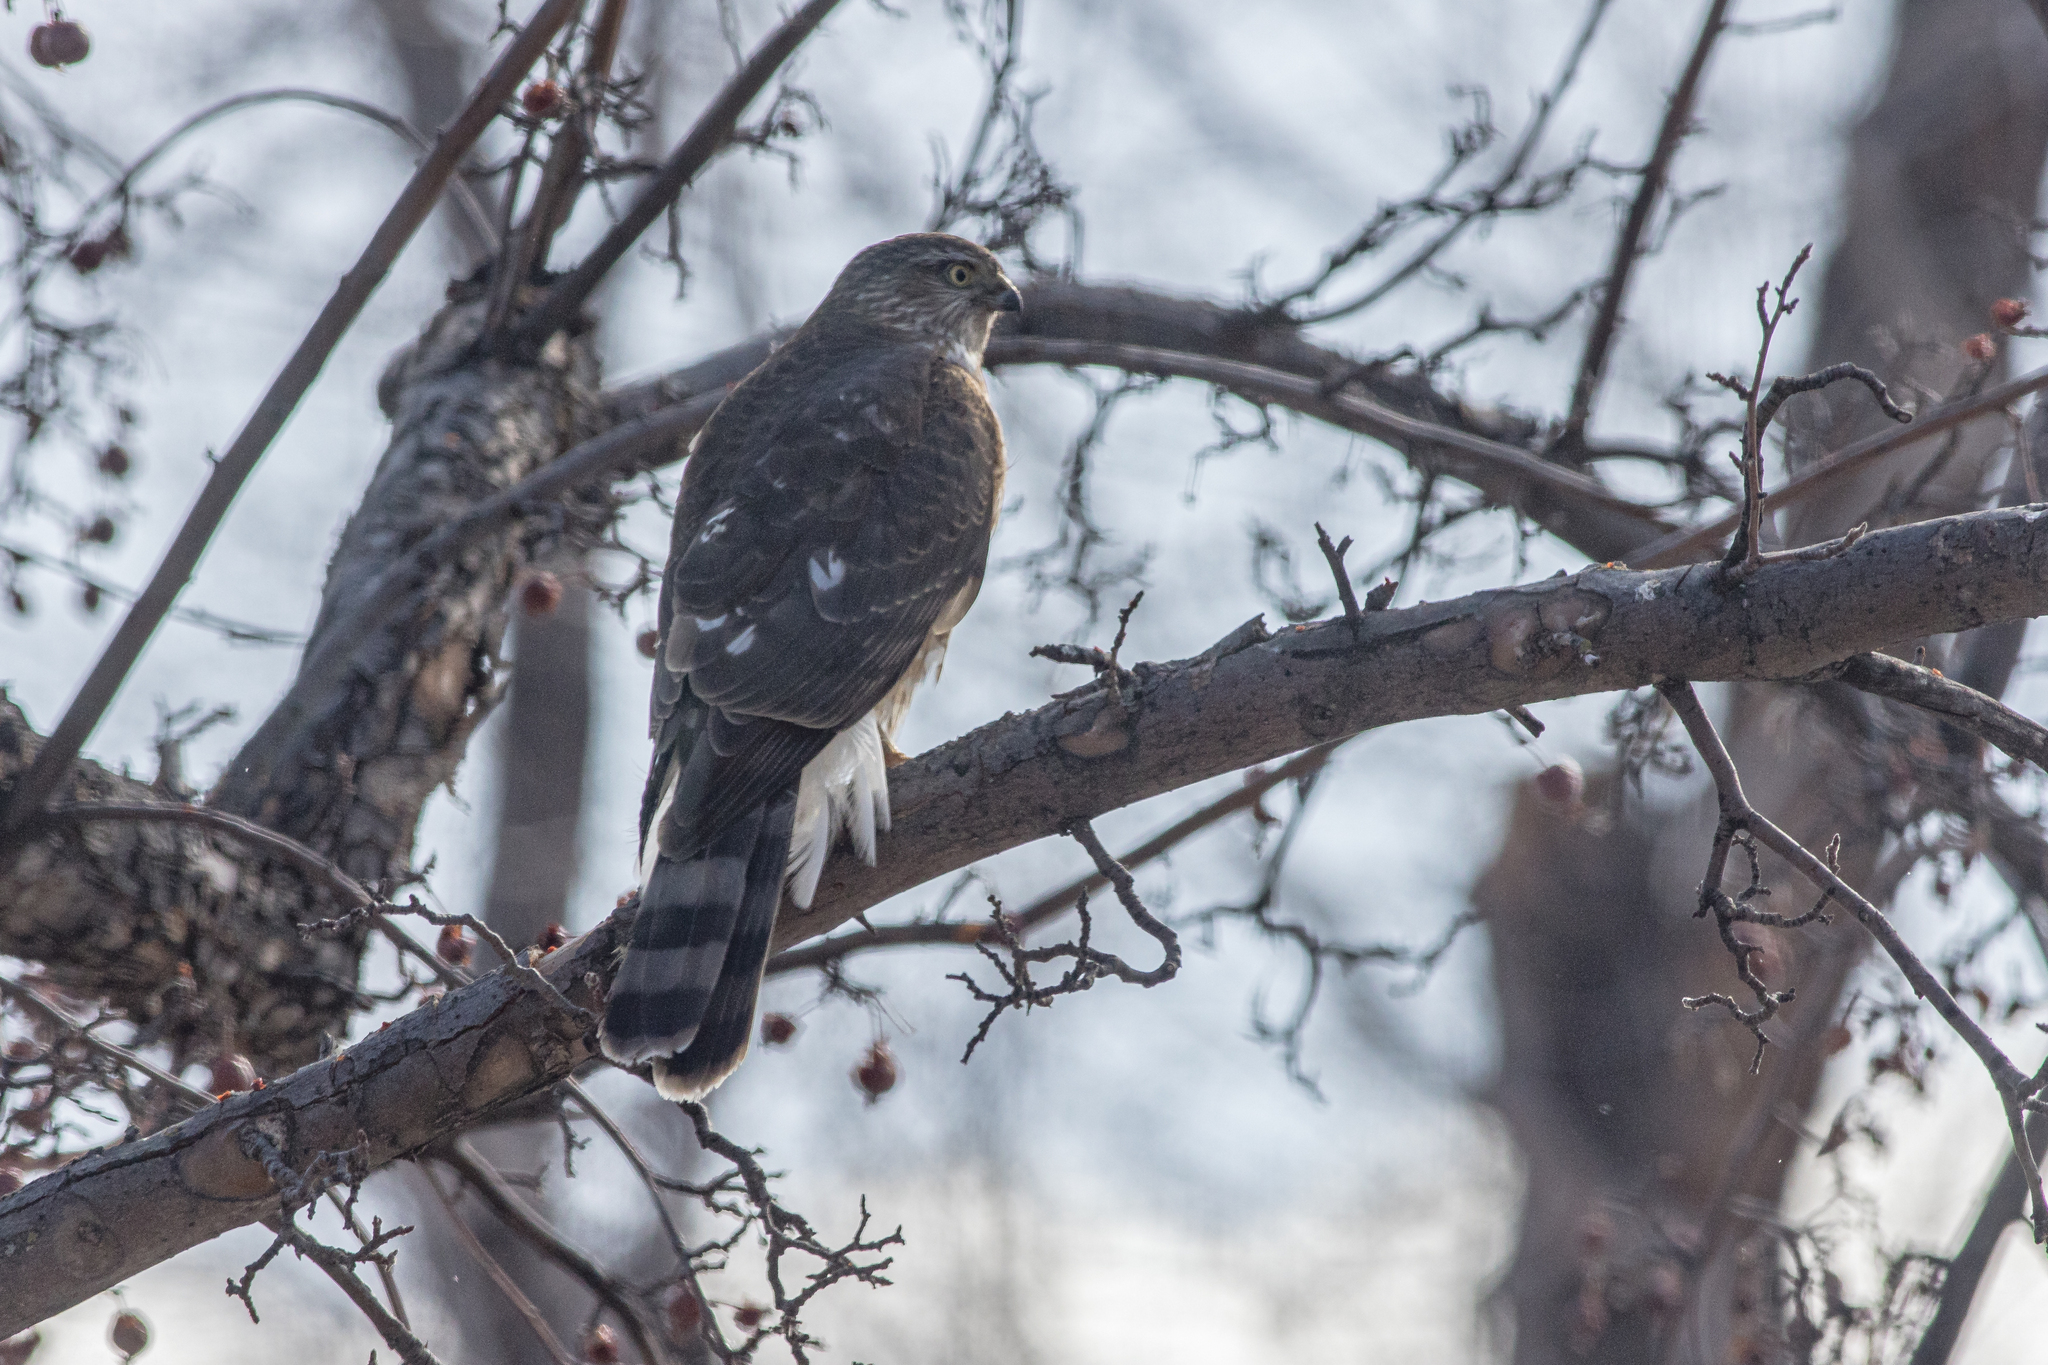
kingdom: Animalia
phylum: Chordata
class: Aves
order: Accipitriformes
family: Accipitridae
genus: Accipiter
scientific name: Accipiter striatus
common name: Sharp-shinned hawk
